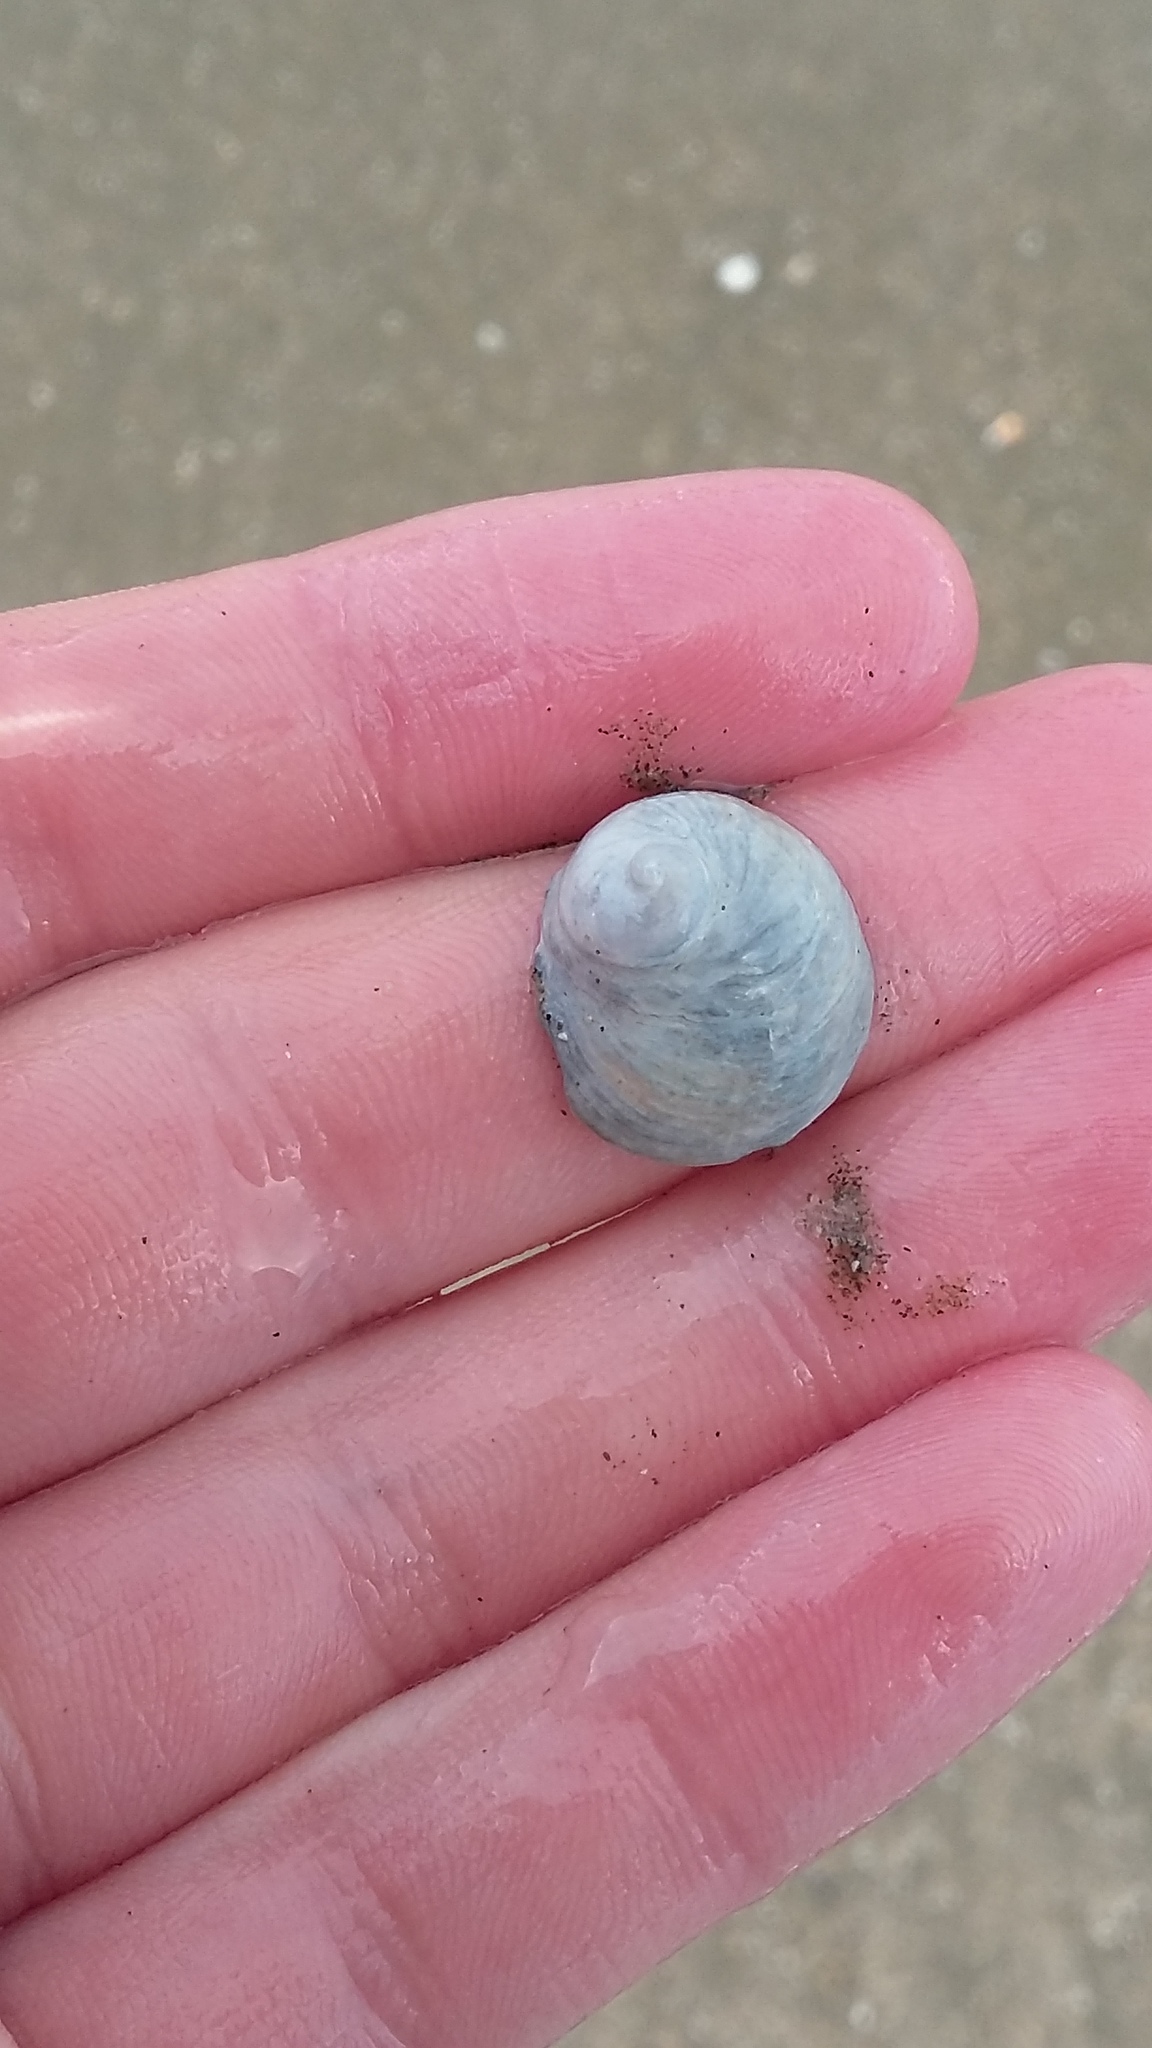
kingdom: Animalia
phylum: Mollusca
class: Gastropoda
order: Littorinimorpha
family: Calyptraeidae
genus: Sigapatella
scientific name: Sigapatella novaezelandiae
